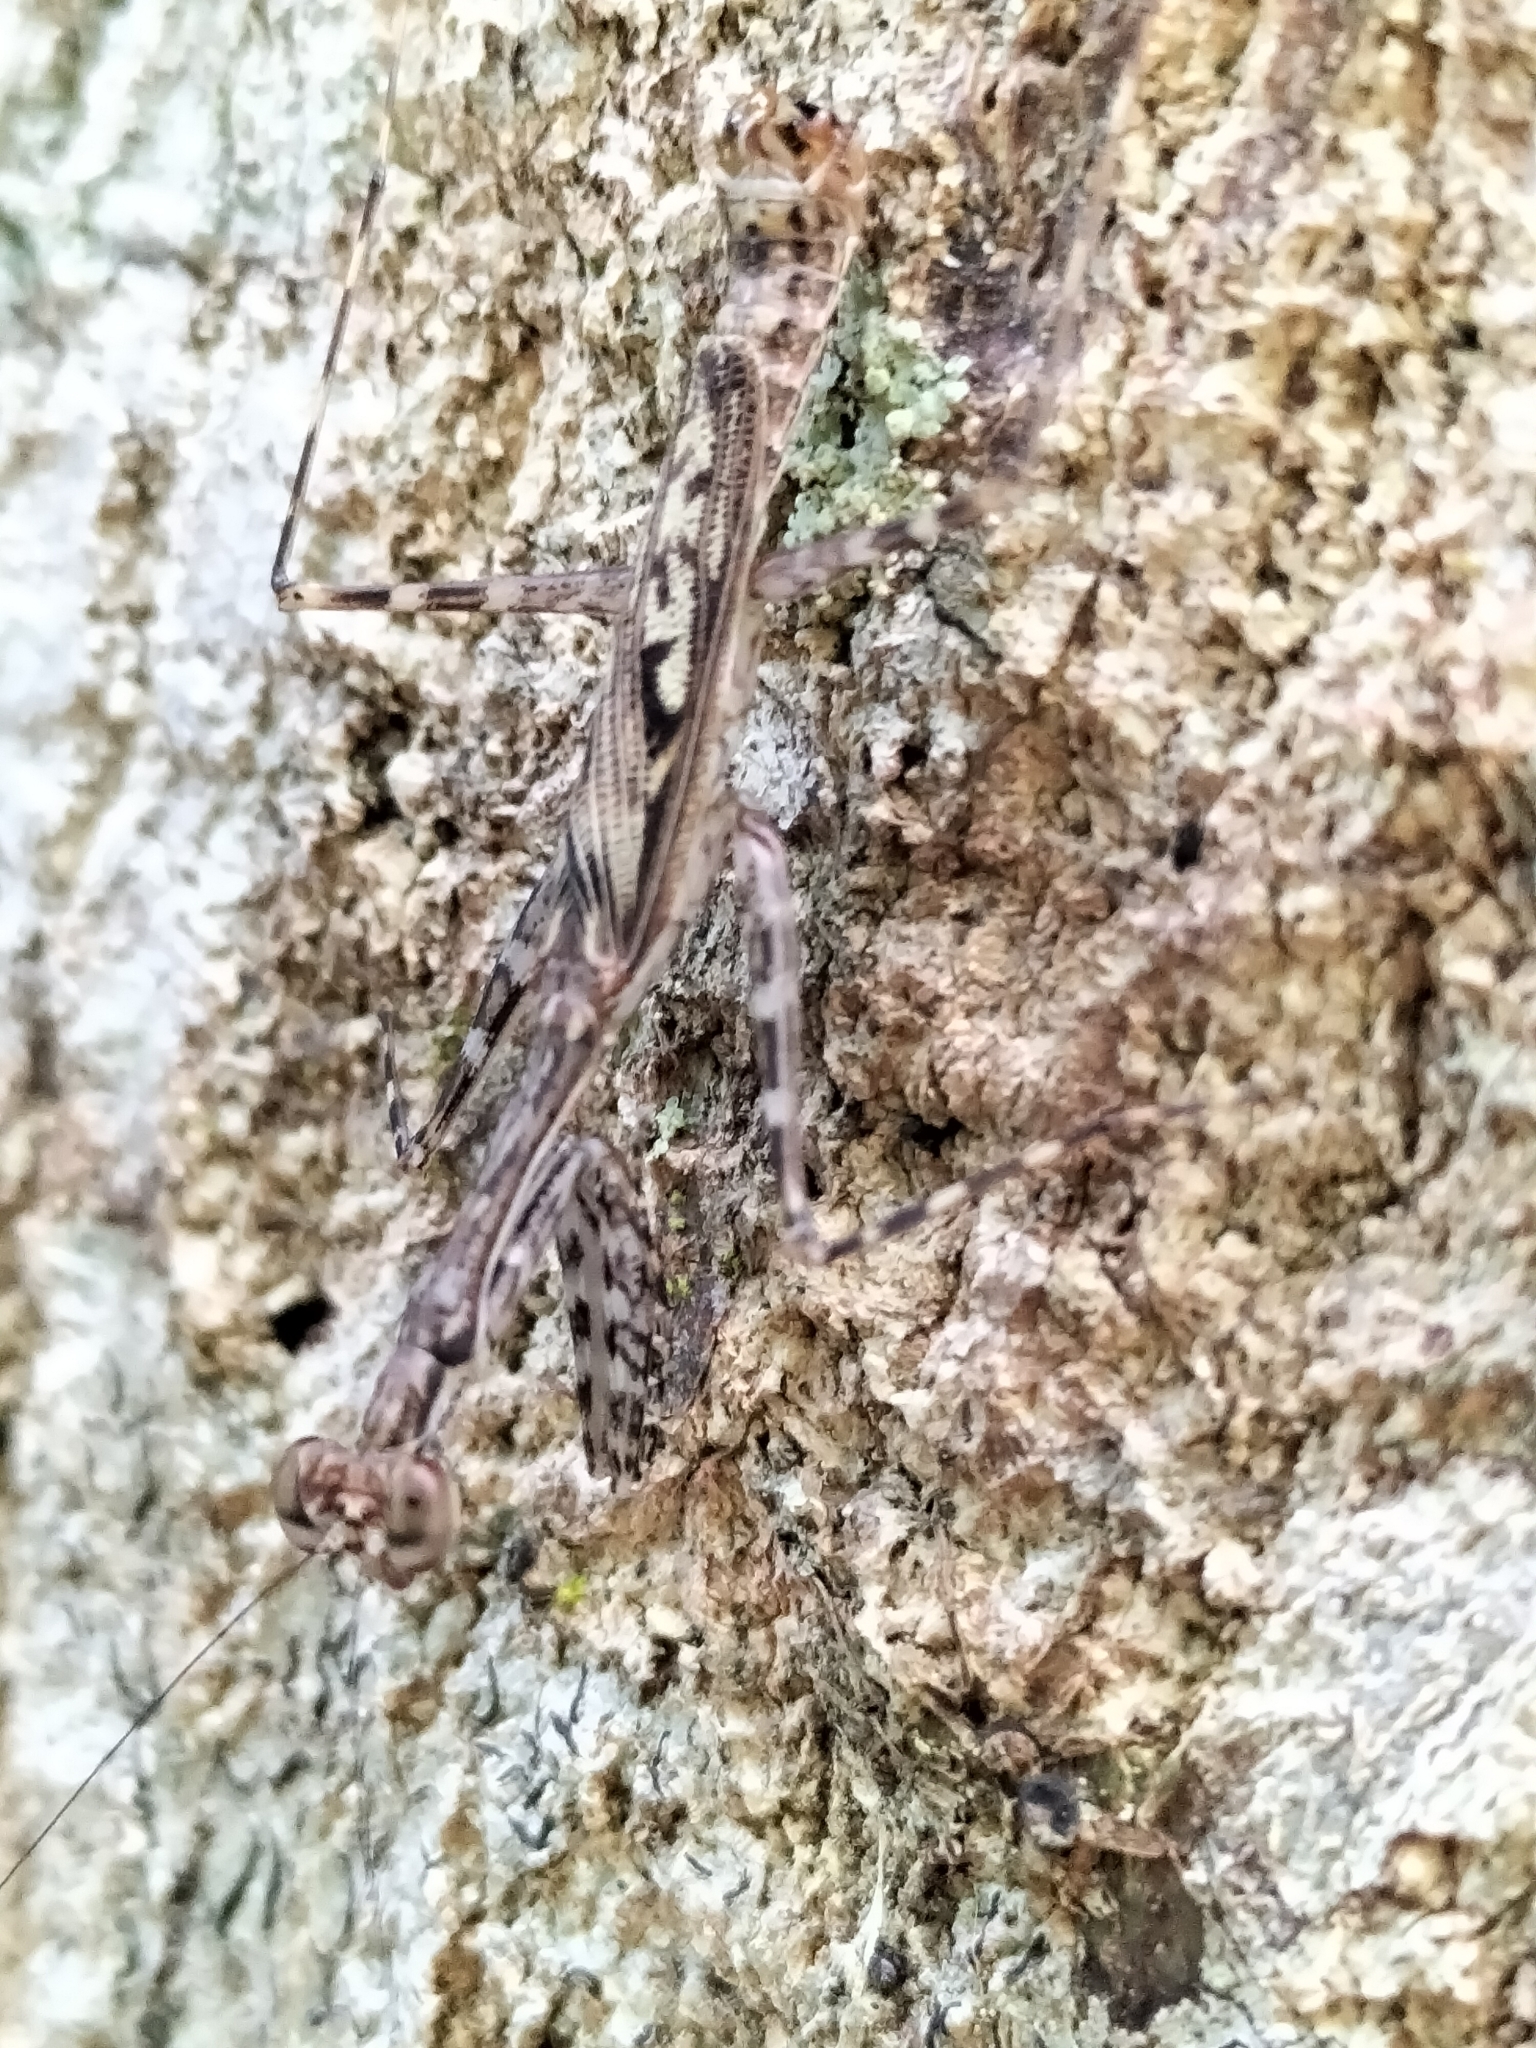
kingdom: Animalia
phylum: Arthropoda
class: Insecta
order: Mantodea
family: Nanomantidae
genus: Ciulfina
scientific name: Ciulfina rentzi
